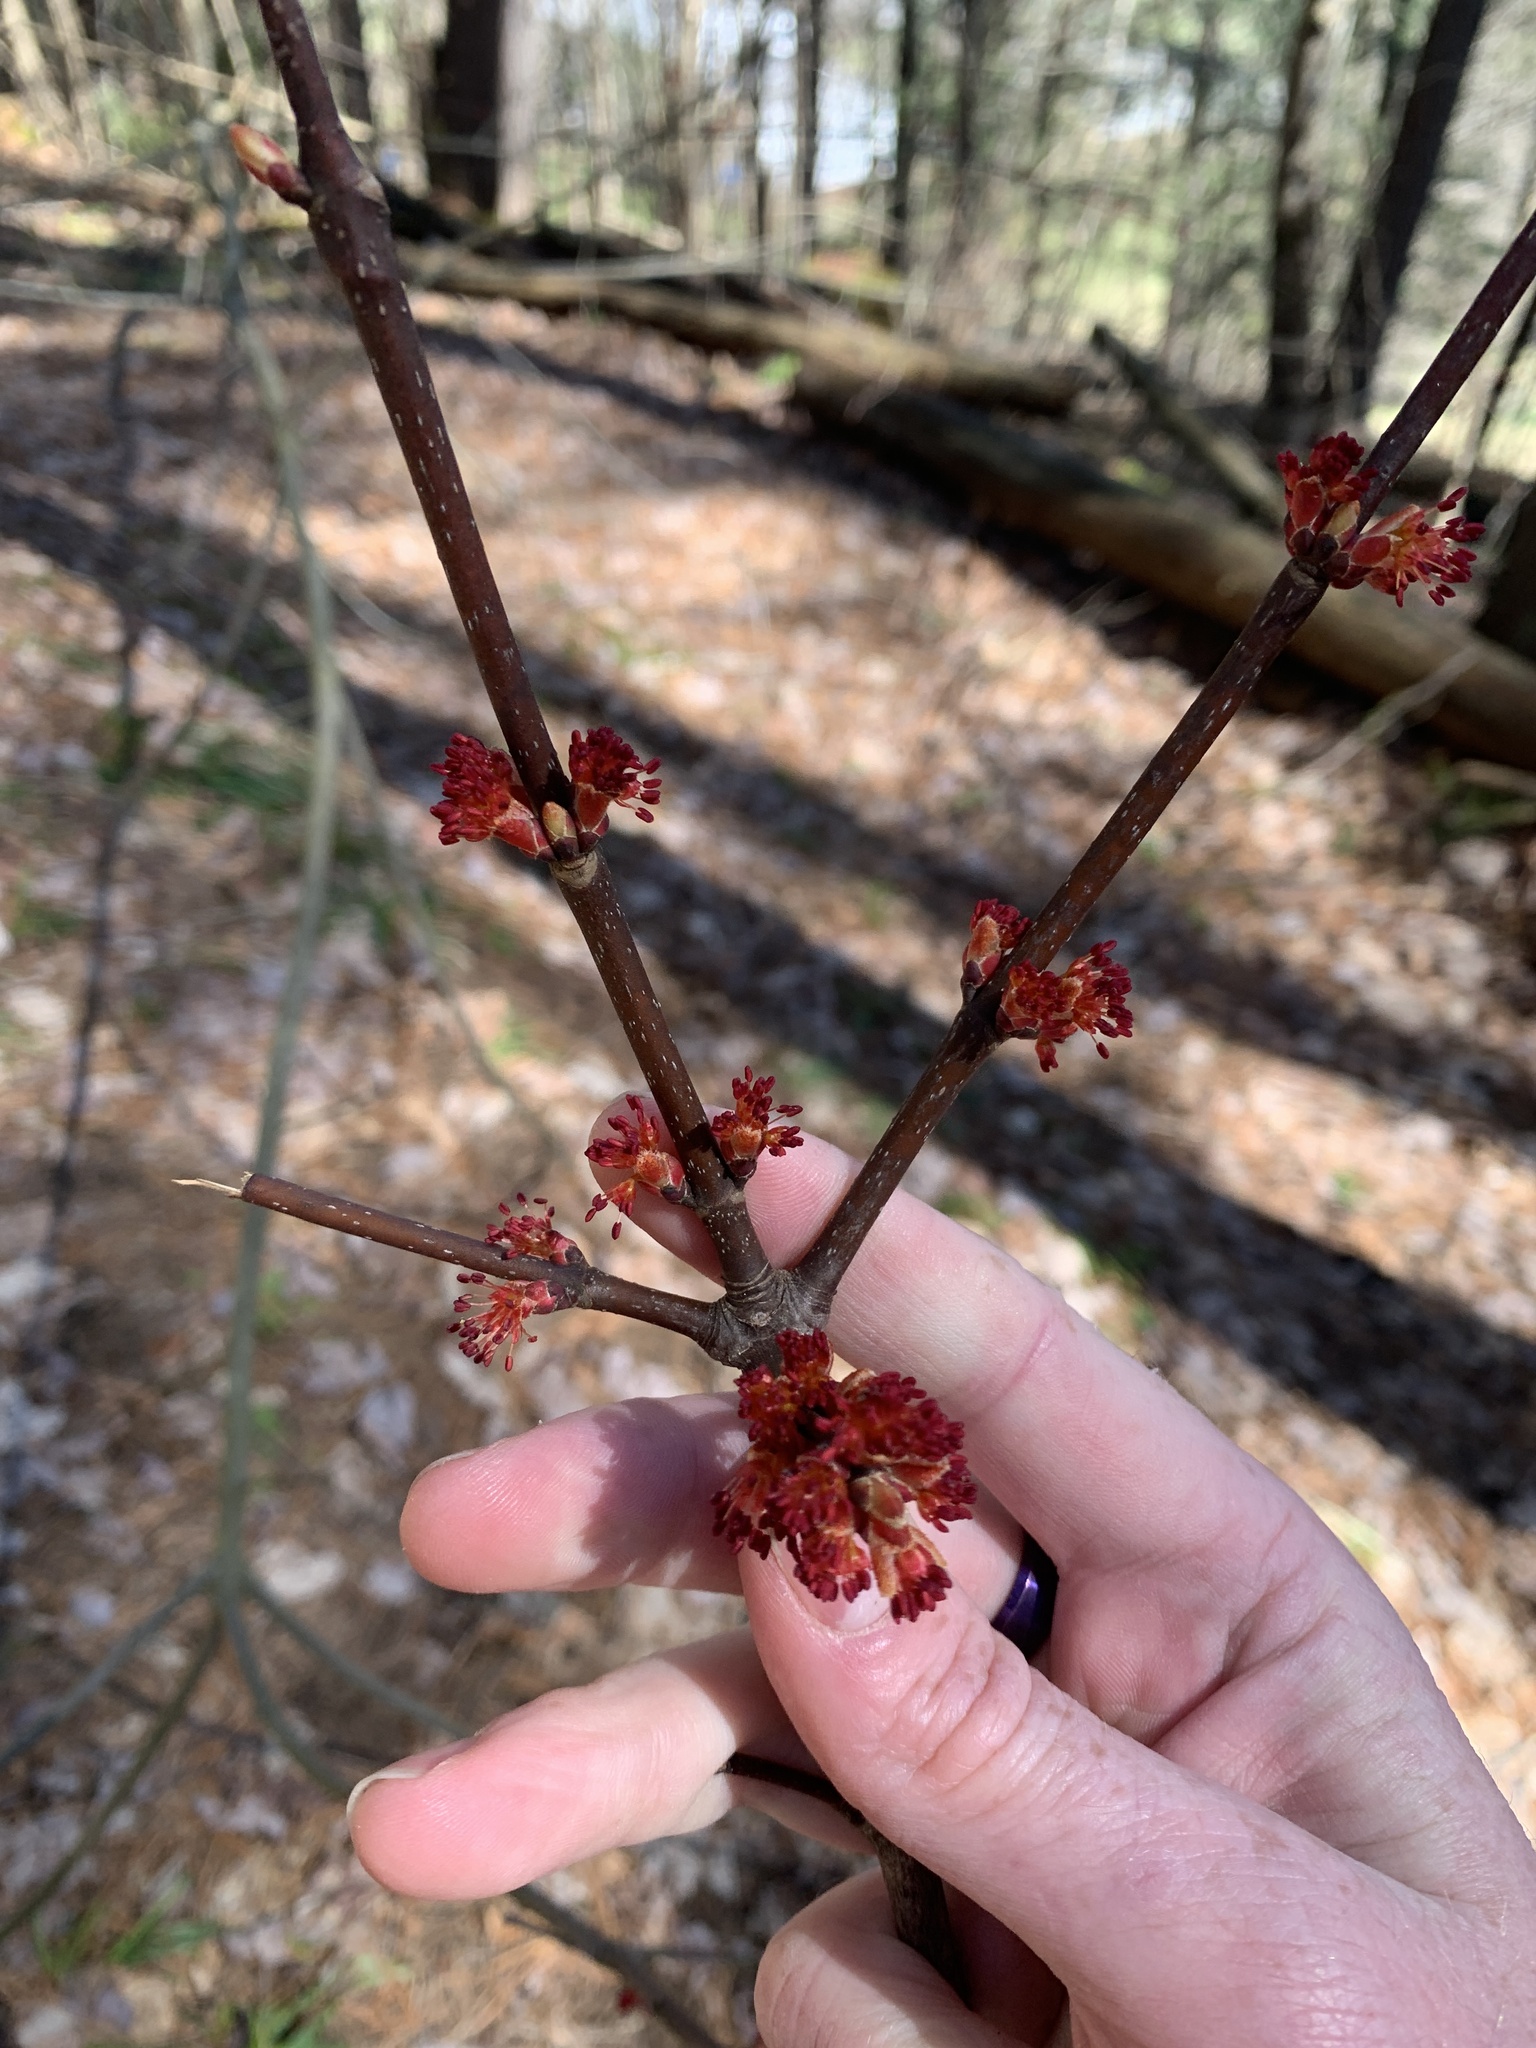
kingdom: Plantae
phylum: Tracheophyta
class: Magnoliopsida
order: Sapindales
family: Sapindaceae
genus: Acer
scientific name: Acer rubrum
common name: Red maple
